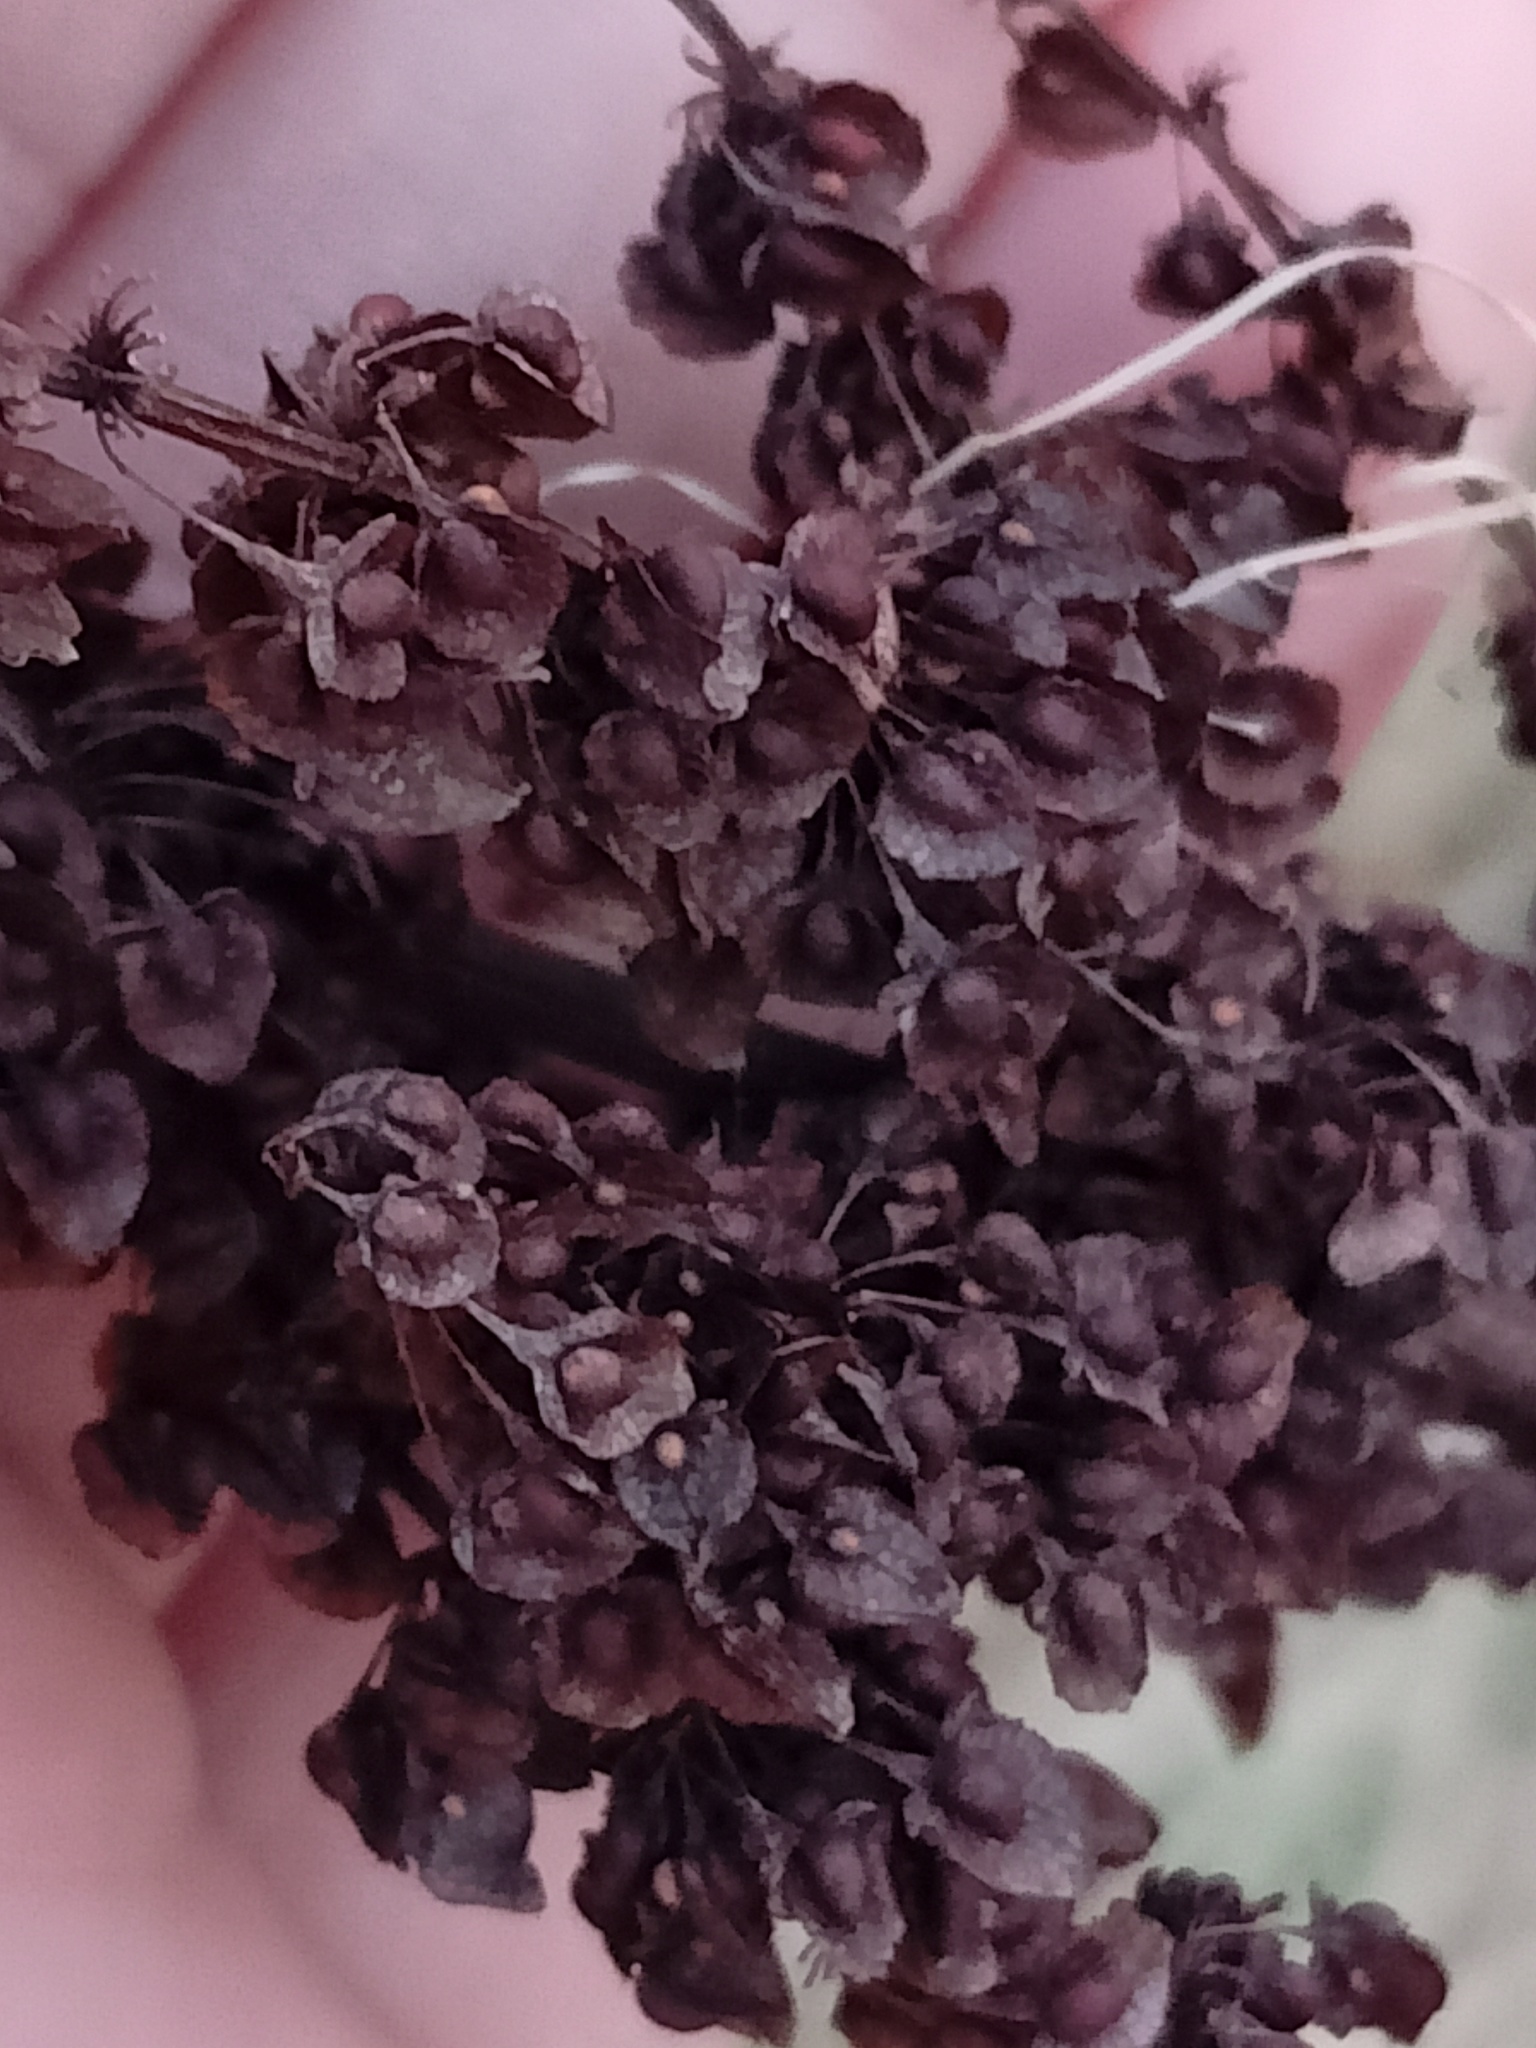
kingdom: Plantae
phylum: Tracheophyta
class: Magnoliopsida
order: Caryophyllales
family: Polygonaceae
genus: Rumex
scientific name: Rumex crispus
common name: Curled dock
